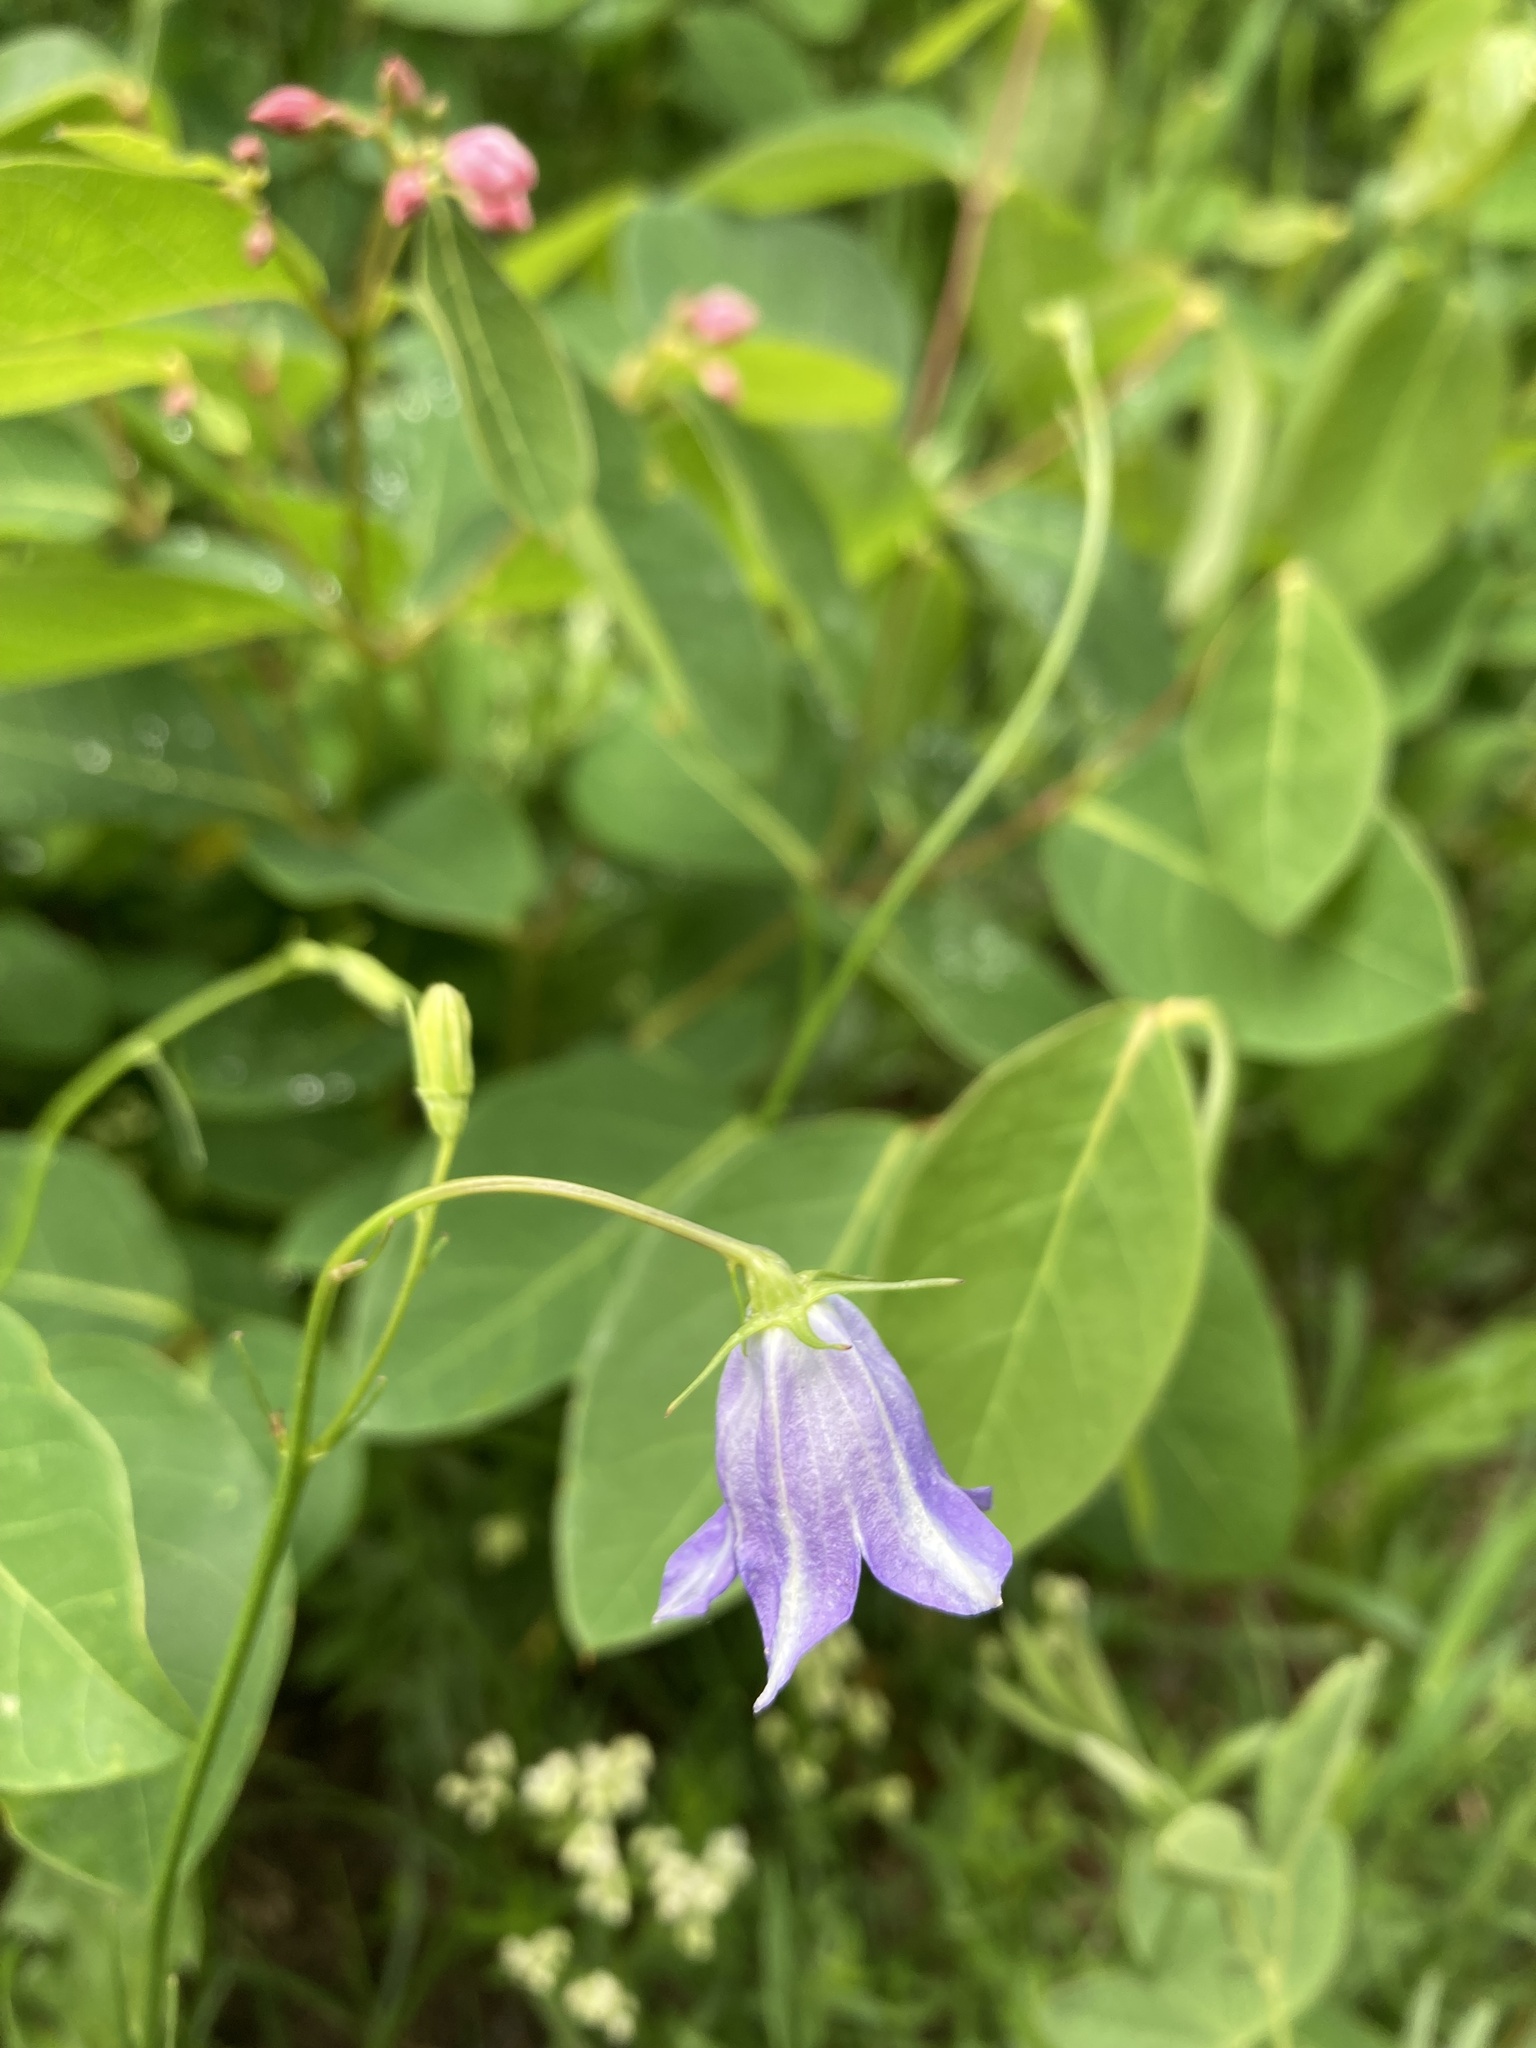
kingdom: Plantae
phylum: Tracheophyta
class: Magnoliopsida
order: Asterales
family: Campanulaceae
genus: Campanula
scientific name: Campanula alaskana
